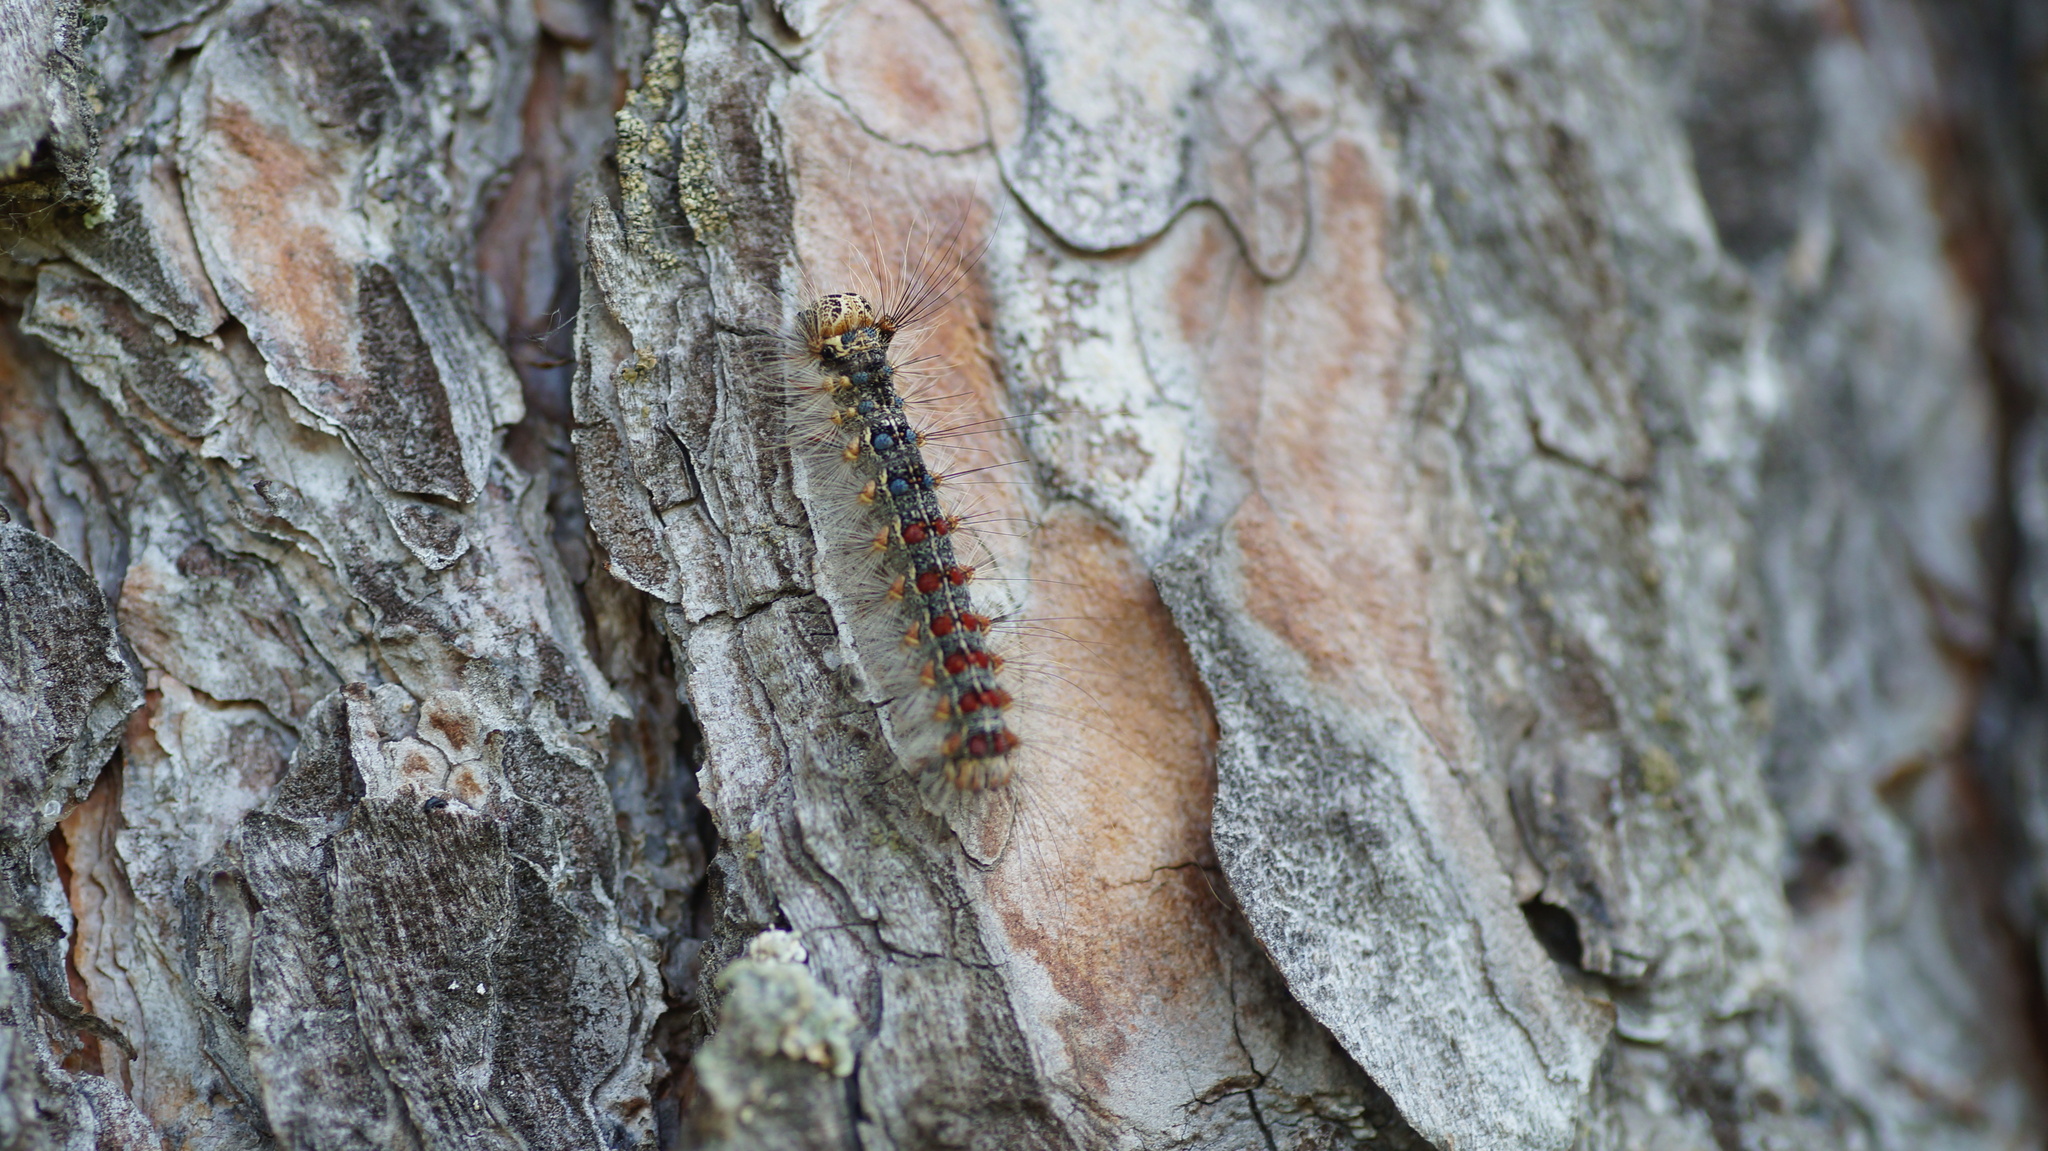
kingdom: Animalia
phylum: Arthropoda
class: Insecta
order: Lepidoptera
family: Erebidae
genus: Lymantria
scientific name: Lymantria dispar
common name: Gypsy moth
